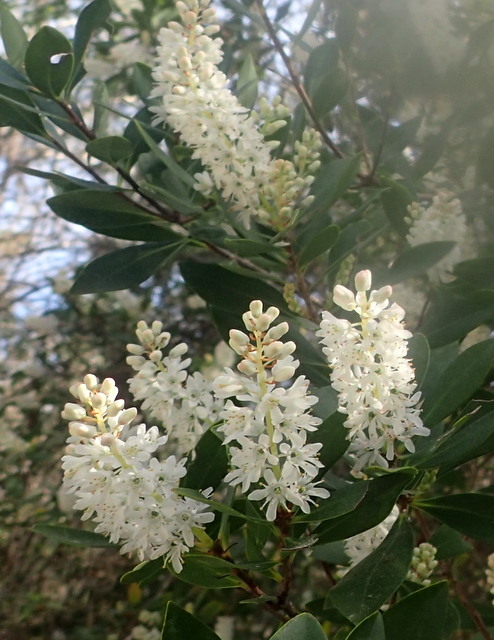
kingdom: Plantae
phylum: Tracheophyta
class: Magnoliopsida
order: Ericales
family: Cyrillaceae
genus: Cliftonia
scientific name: Cliftonia monophylla
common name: Titi
